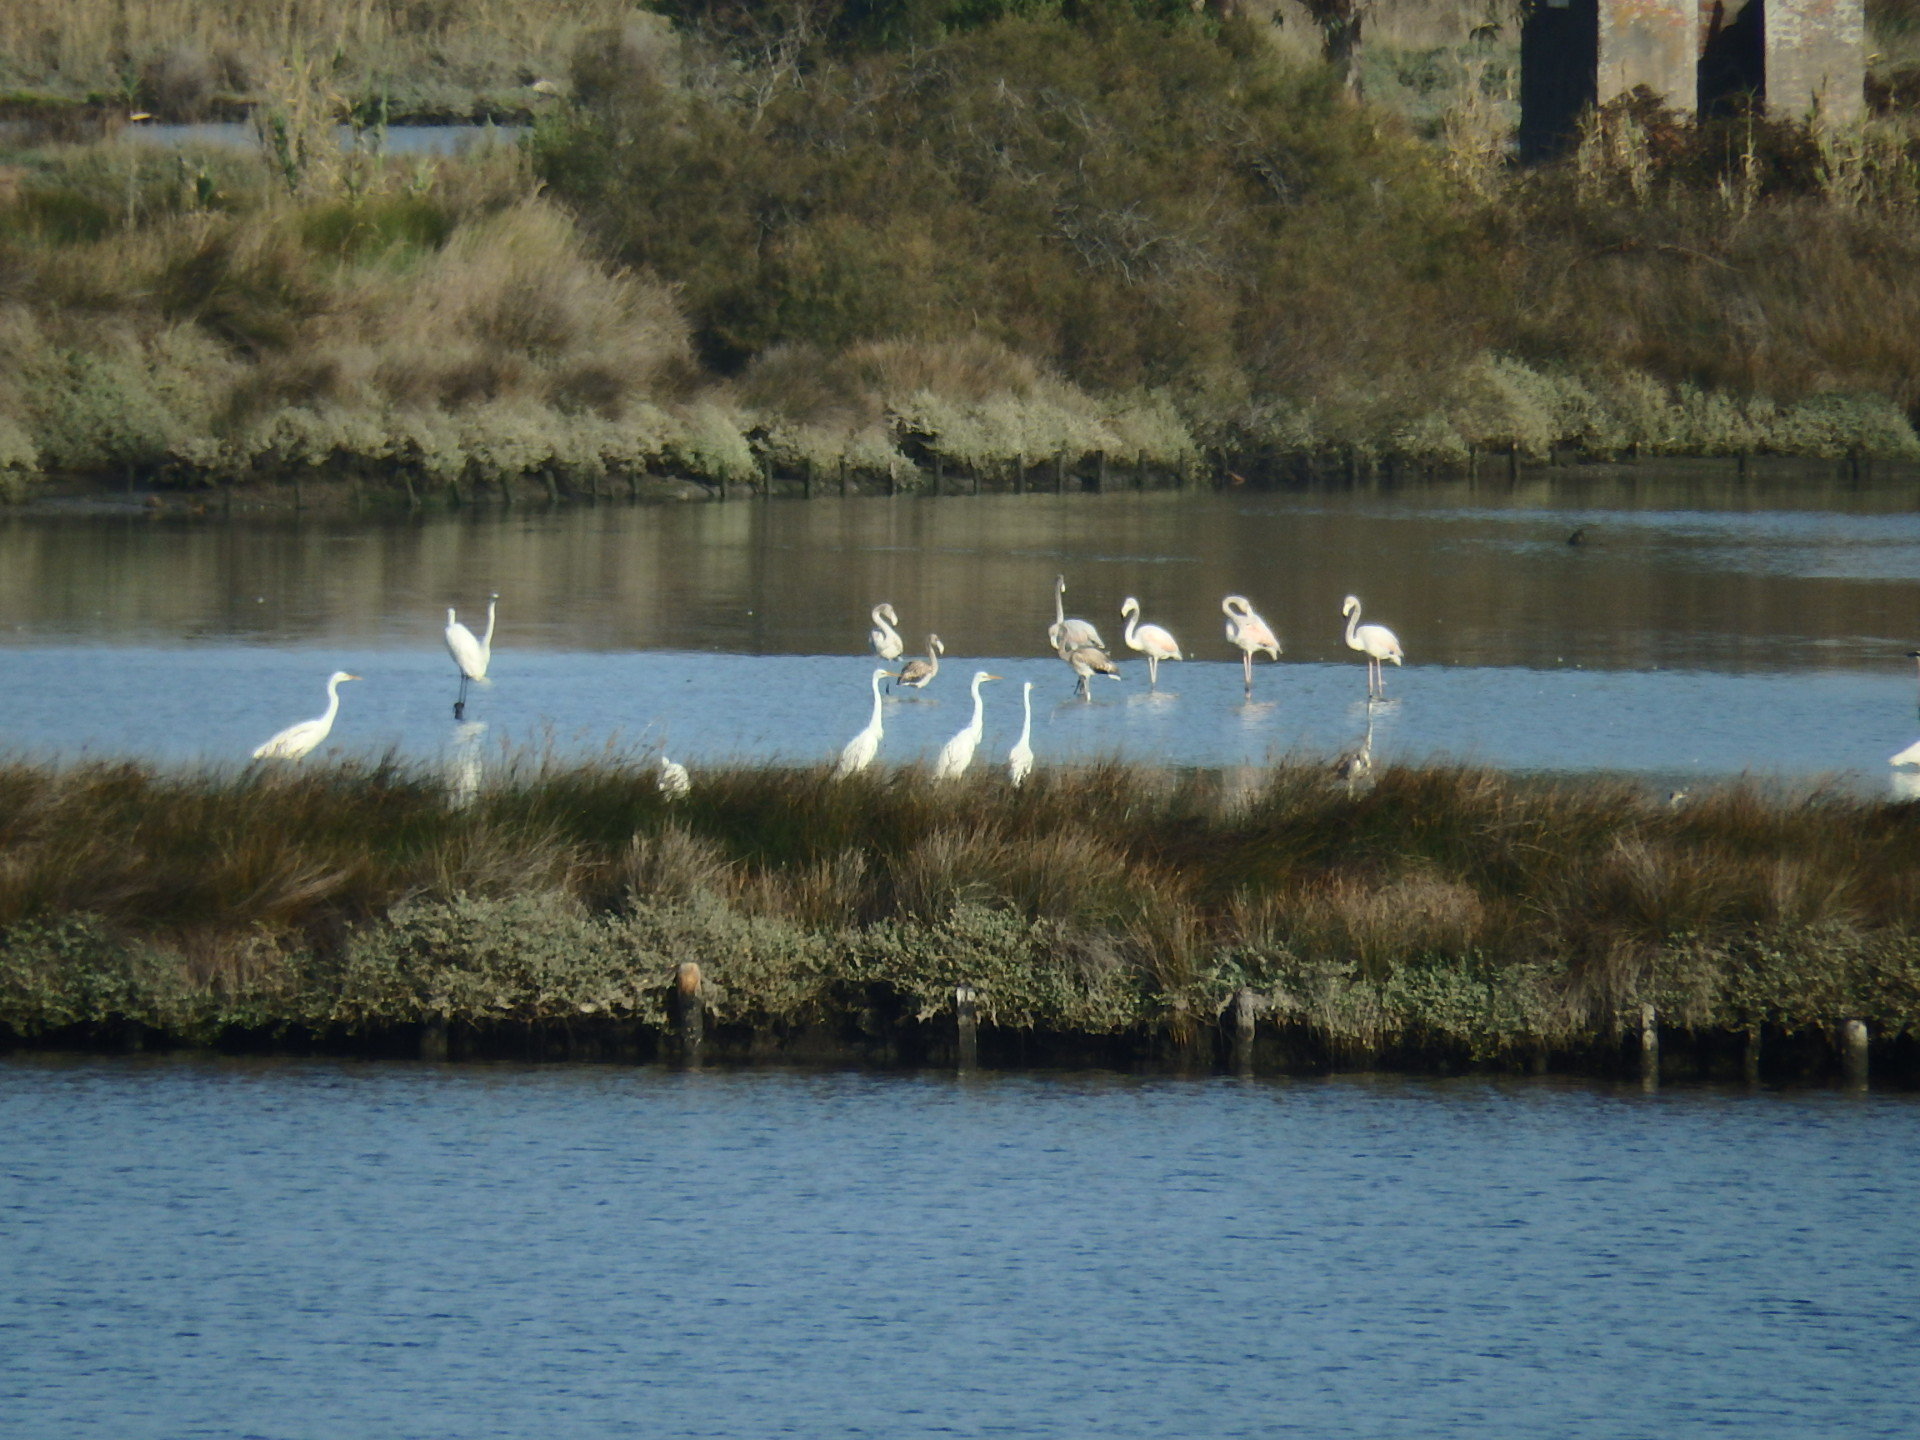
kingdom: Animalia
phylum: Chordata
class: Aves
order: Pelecaniformes
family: Ardeidae
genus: Ardea
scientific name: Ardea alba
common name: Great egret
